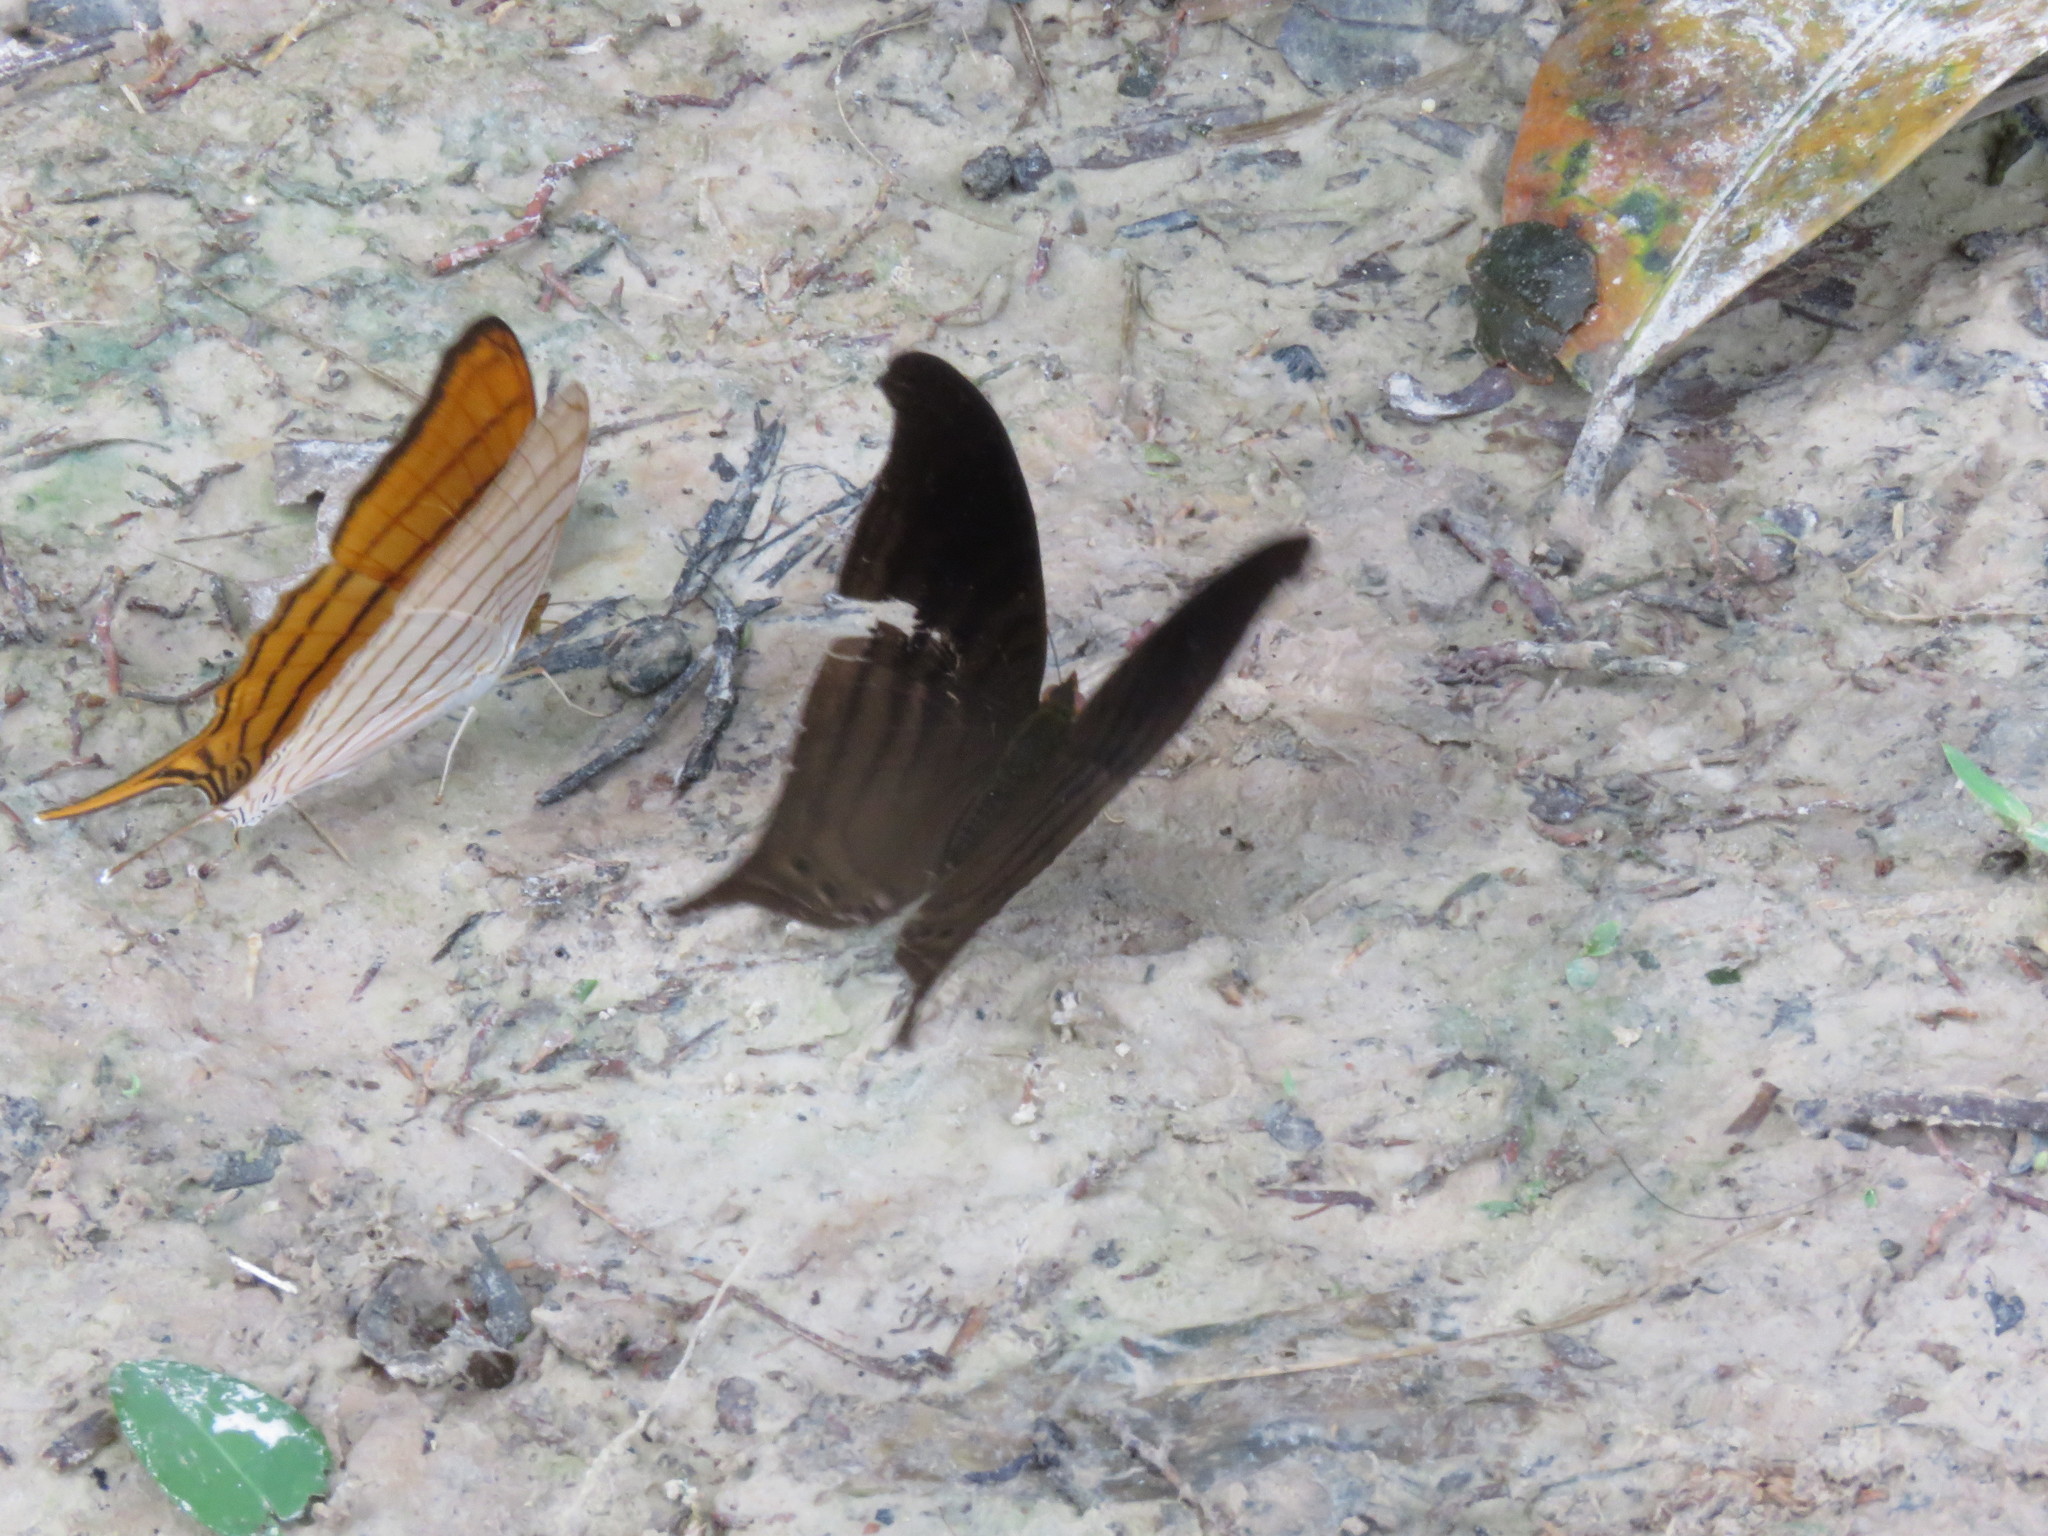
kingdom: Animalia
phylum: Arthropoda
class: Insecta
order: Lepidoptera
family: Nymphalidae
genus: Marpesia
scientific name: Marpesia themistocles
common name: Norica daggerwing
